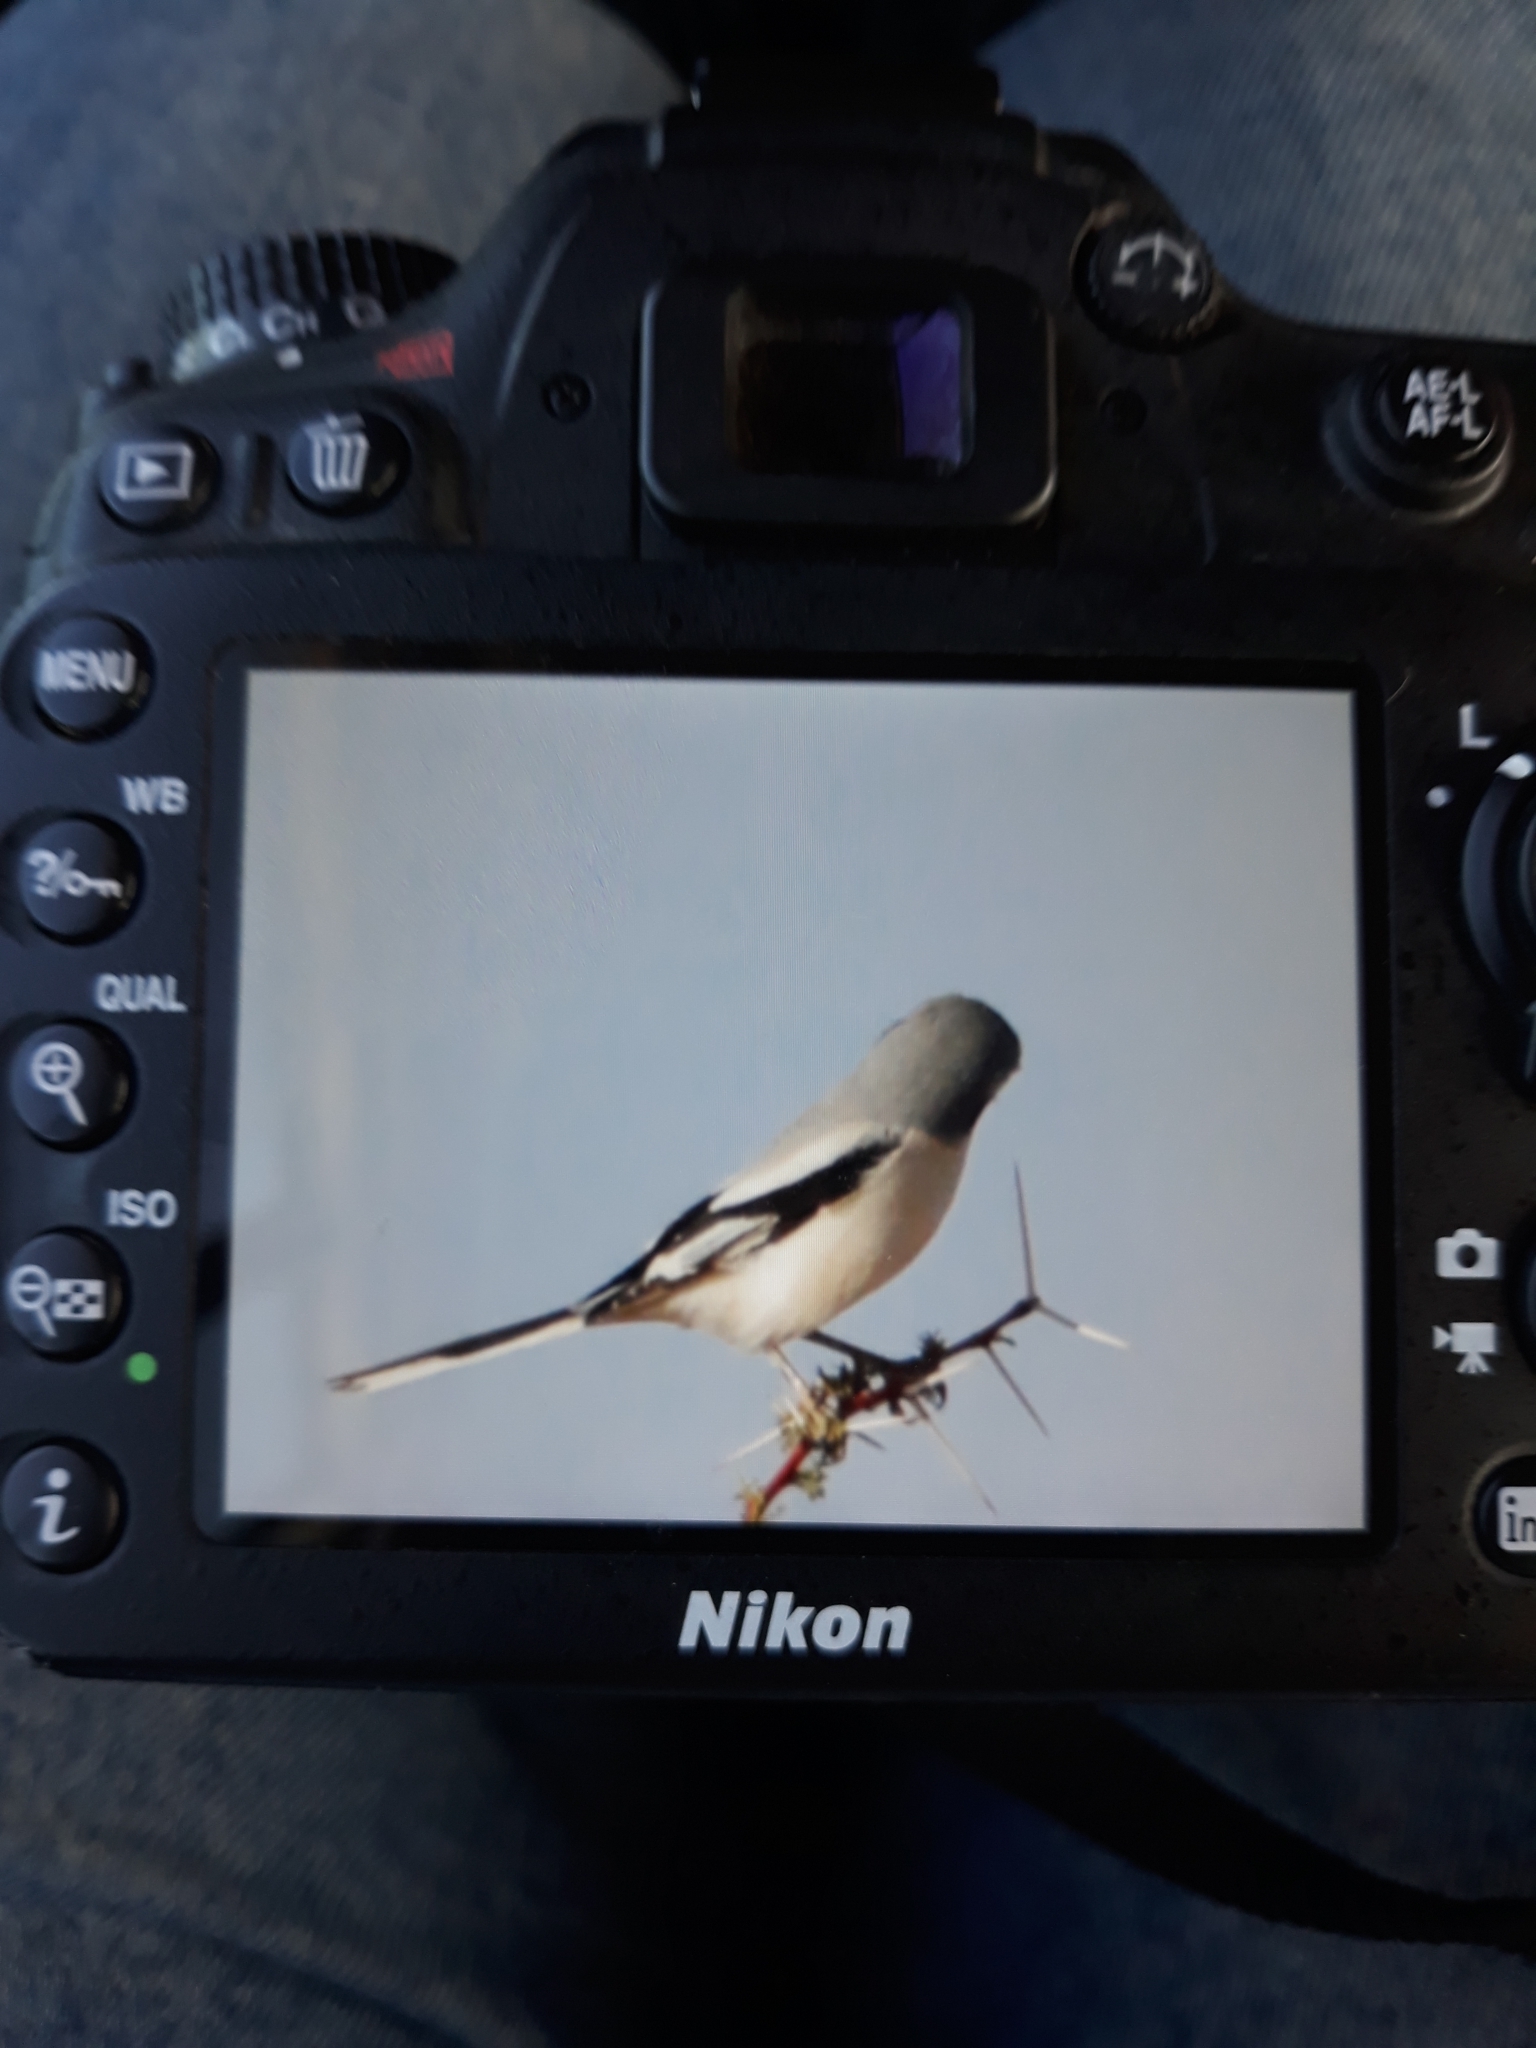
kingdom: Animalia
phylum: Chordata
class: Aves
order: Passeriformes
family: Laniidae
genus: Lanius
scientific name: Lanius excubitor
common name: Great grey shrike
